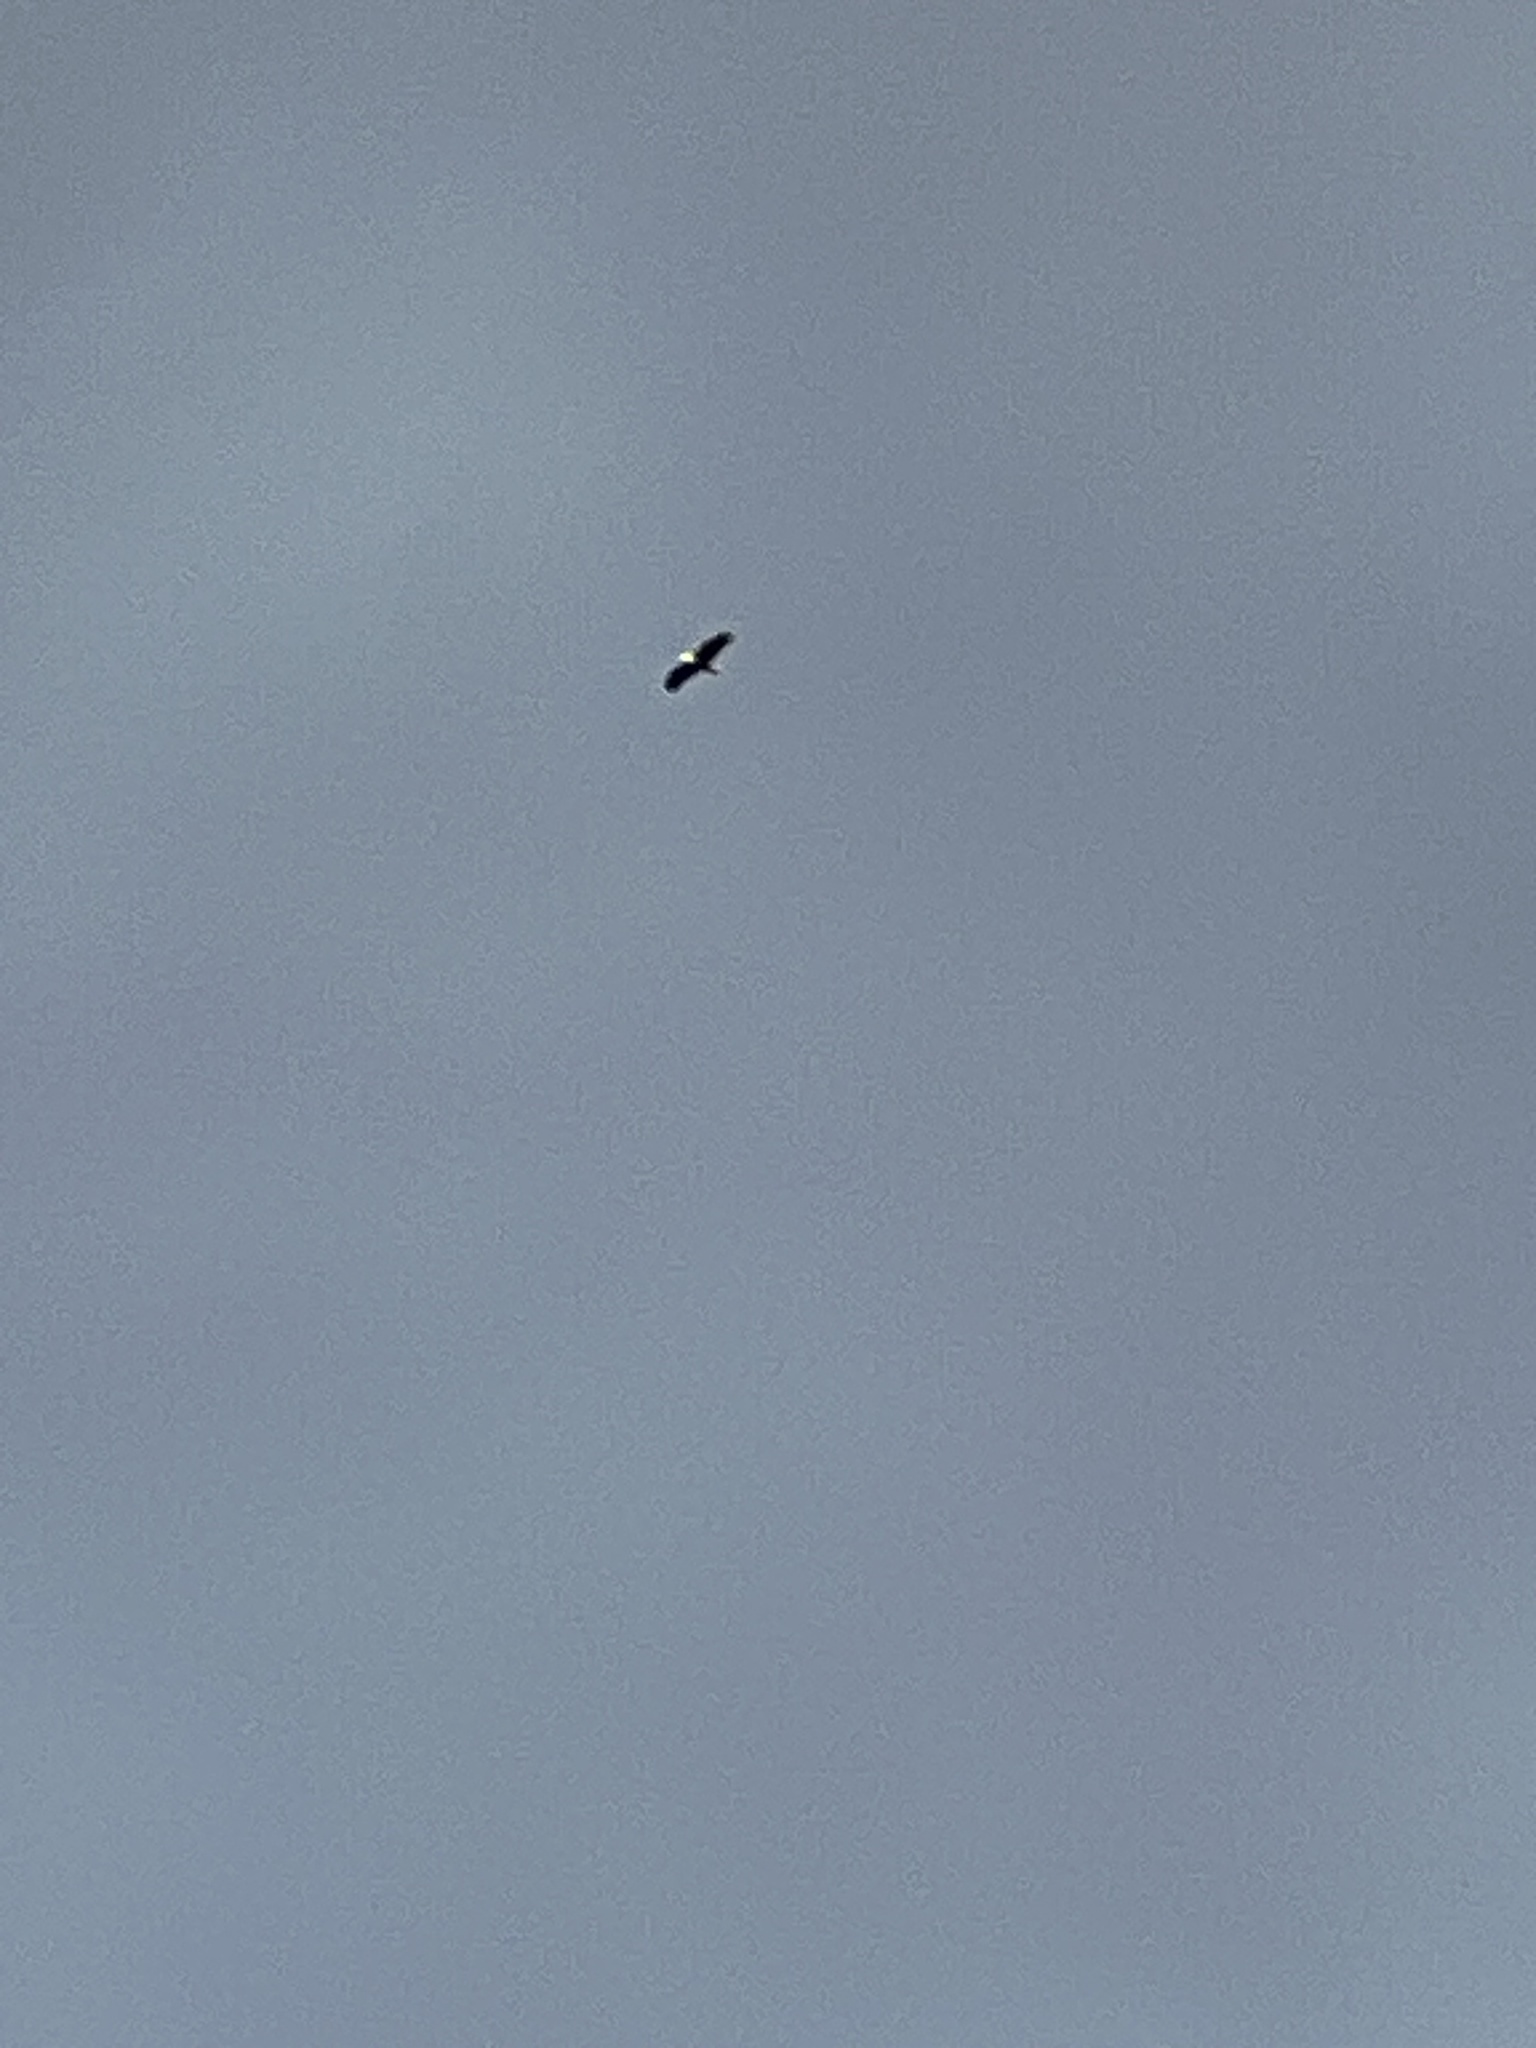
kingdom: Animalia
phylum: Chordata
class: Aves
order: Accipitriformes
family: Accipitridae
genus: Haliaeetus
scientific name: Haliaeetus leucocephalus
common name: Bald eagle
